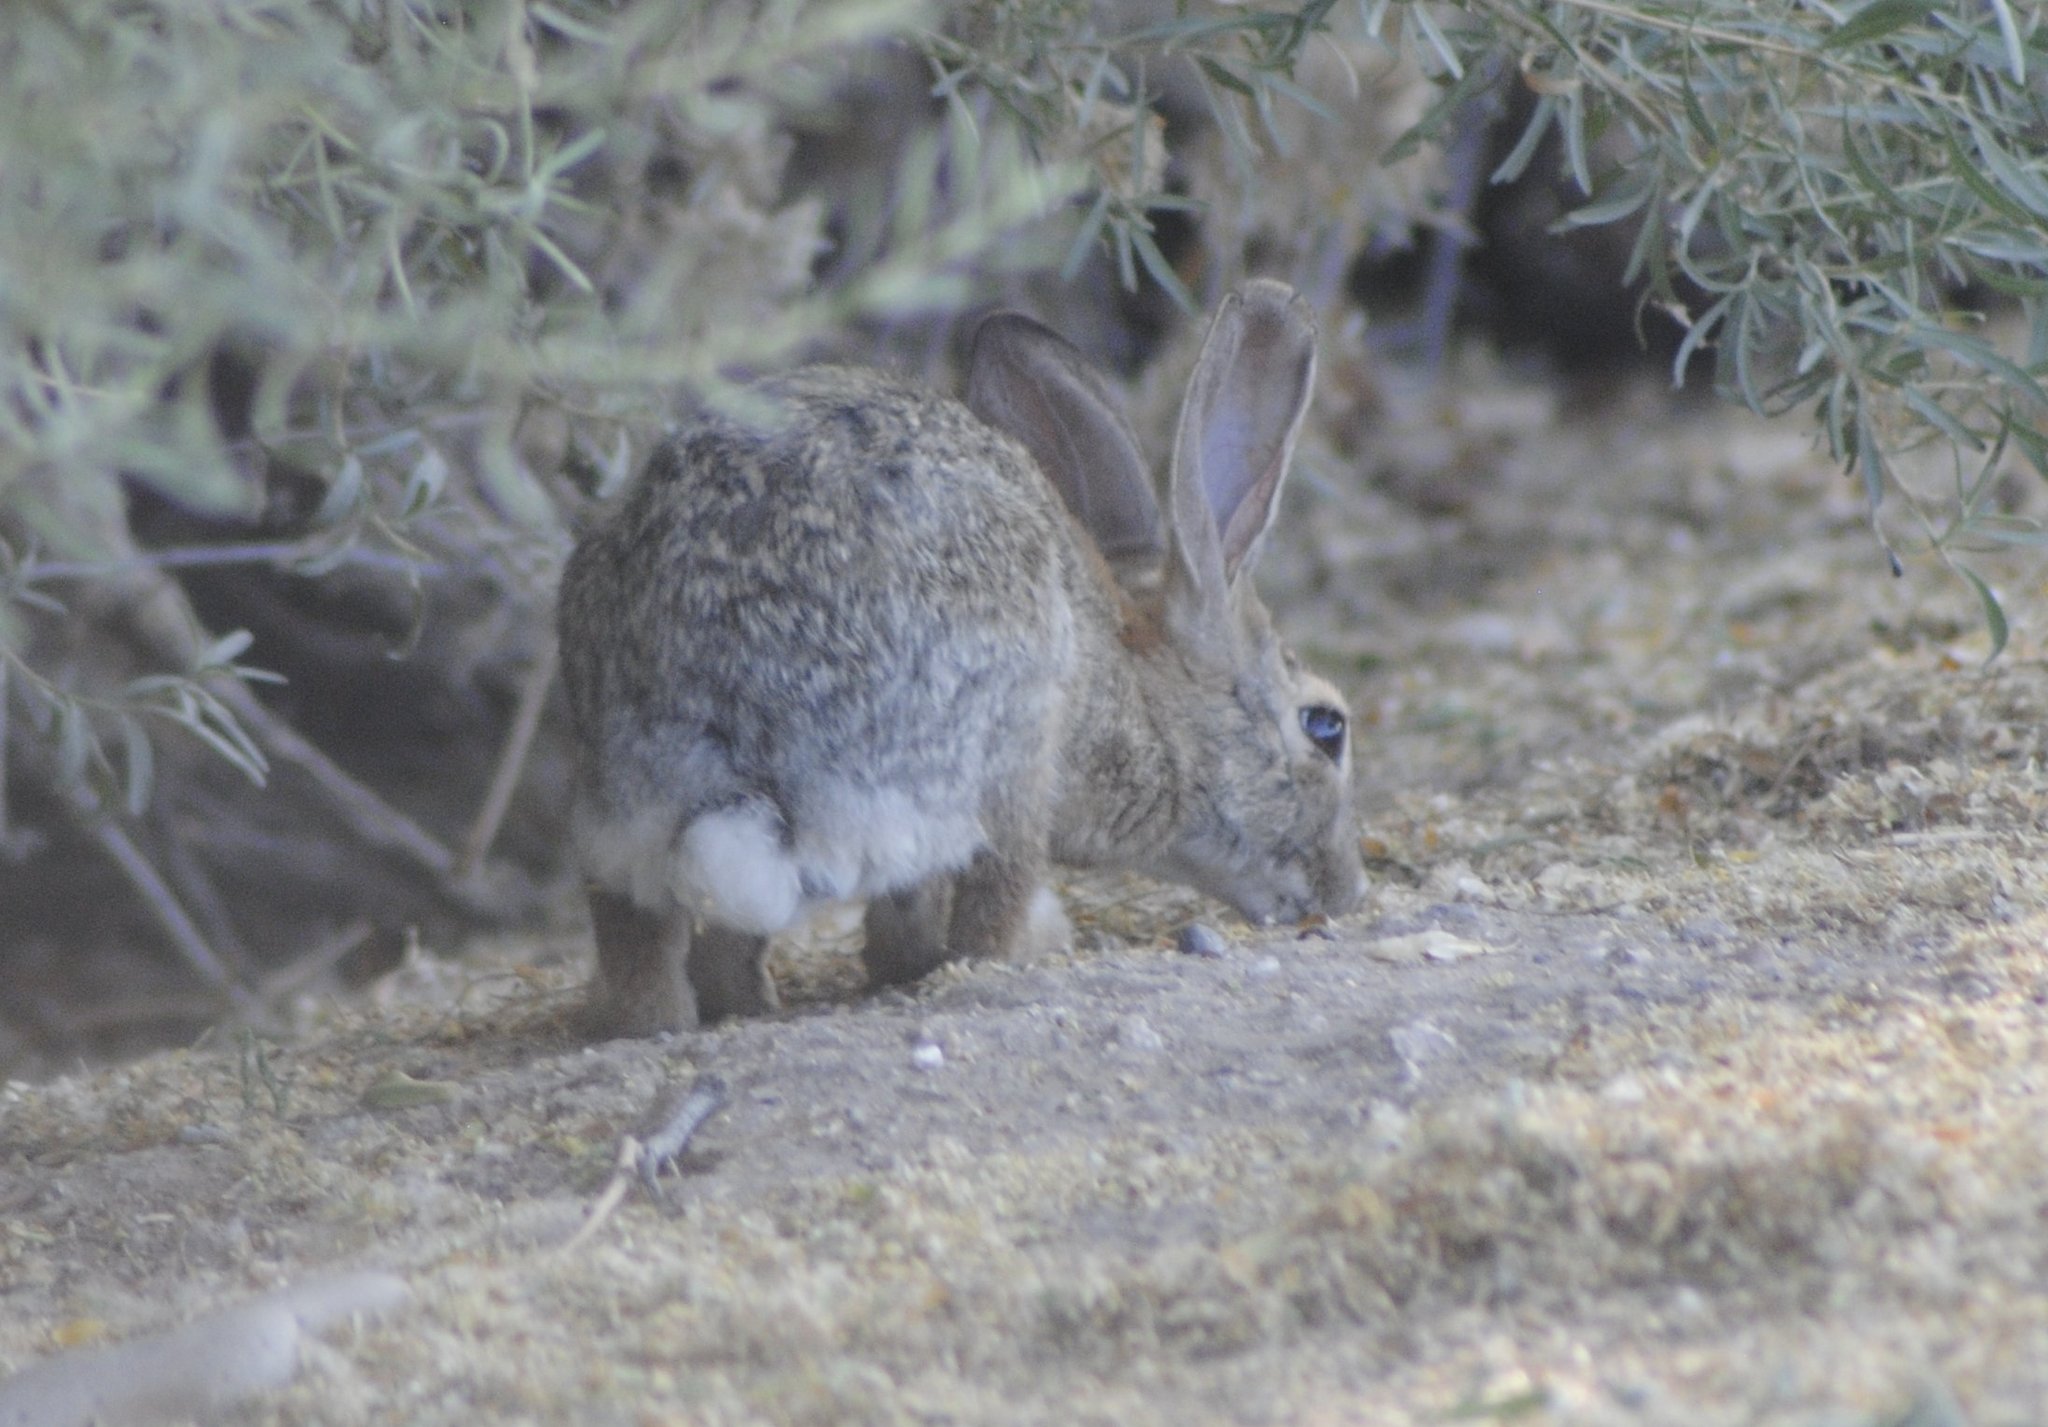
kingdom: Animalia
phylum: Chordata
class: Mammalia
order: Lagomorpha
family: Leporidae
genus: Sylvilagus
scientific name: Sylvilagus audubonii
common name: Desert cottontail
